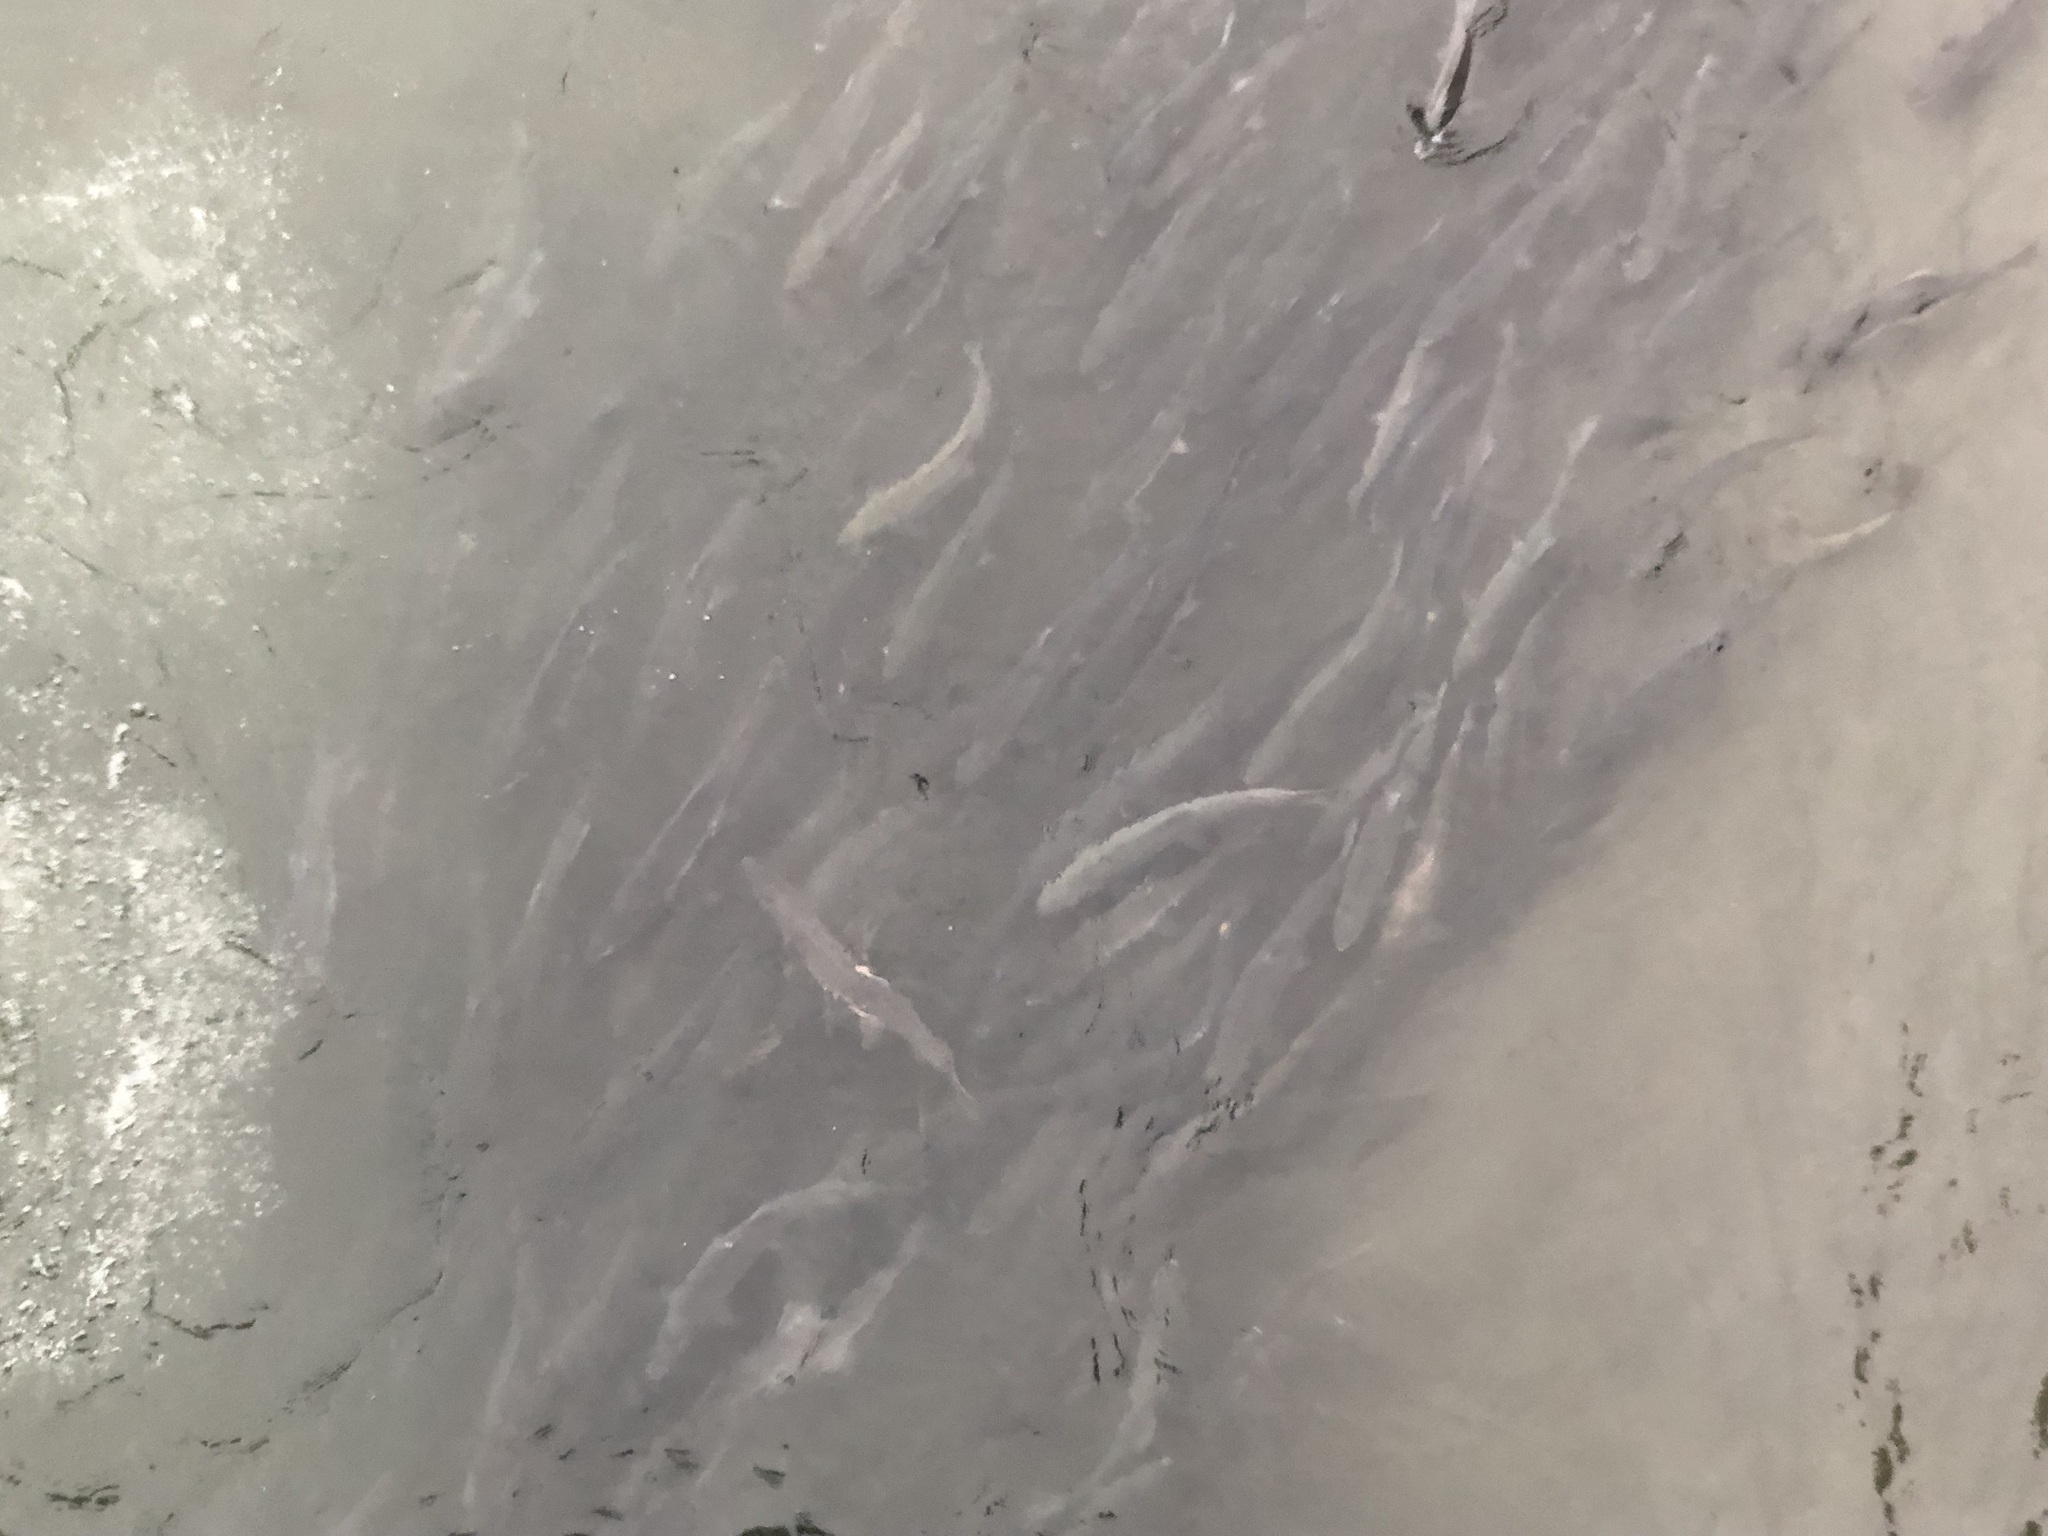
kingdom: Animalia
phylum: Chordata
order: Salmoniformes
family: Salmonidae
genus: Oncorhynchus
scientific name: Oncorhynchus gorbuscha
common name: Humpback salmon
